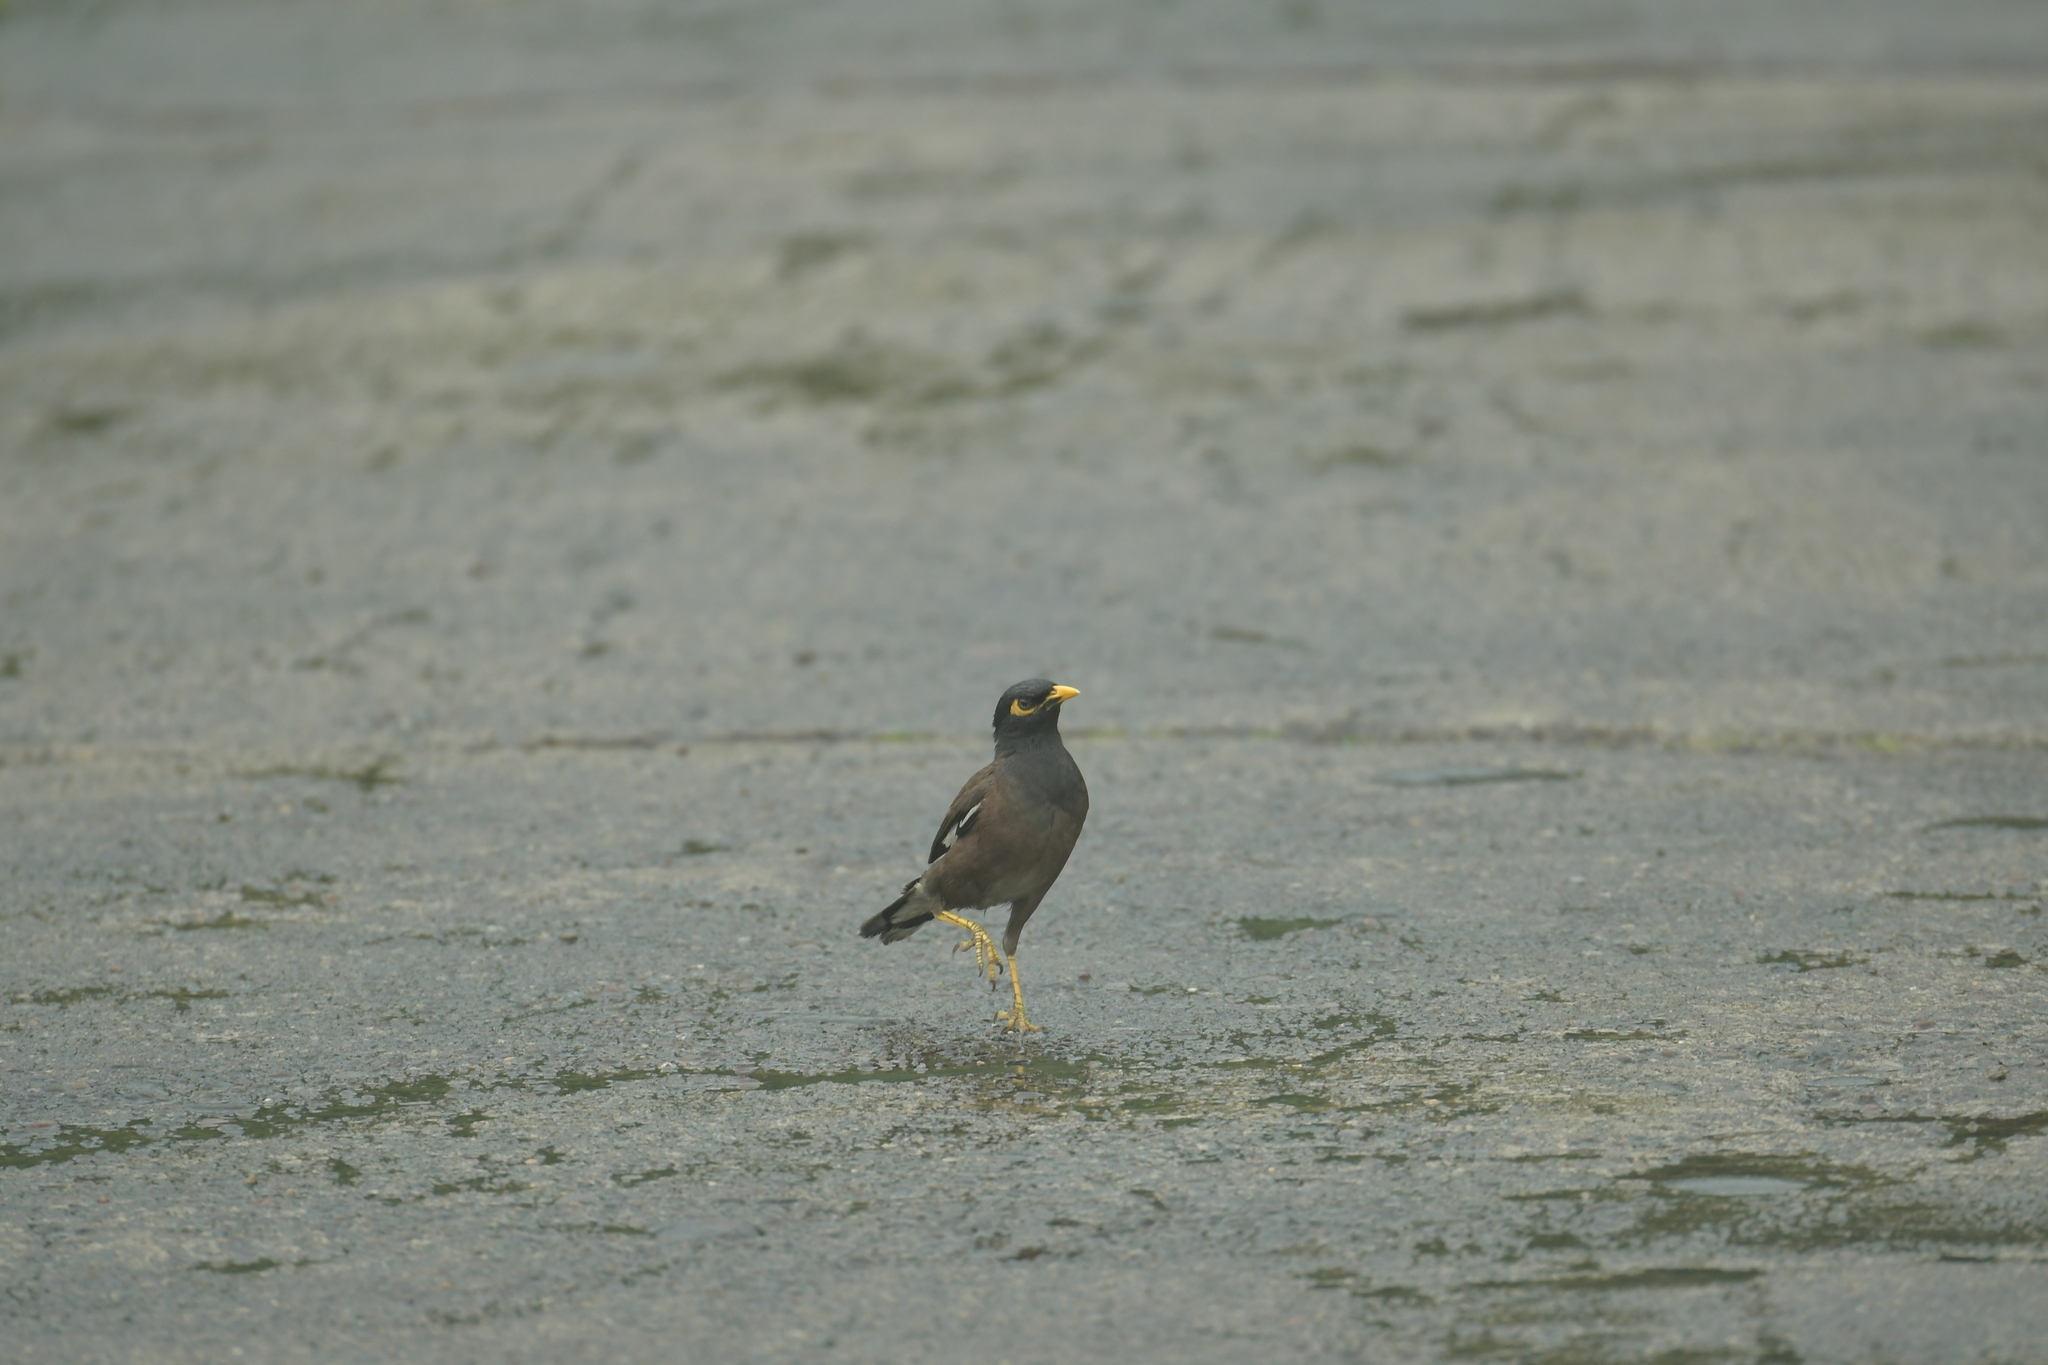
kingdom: Animalia
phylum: Chordata
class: Aves
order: Passeriformes
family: Sturnidae
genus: Acridotheres
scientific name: Acridotheres tristis
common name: Common myna
